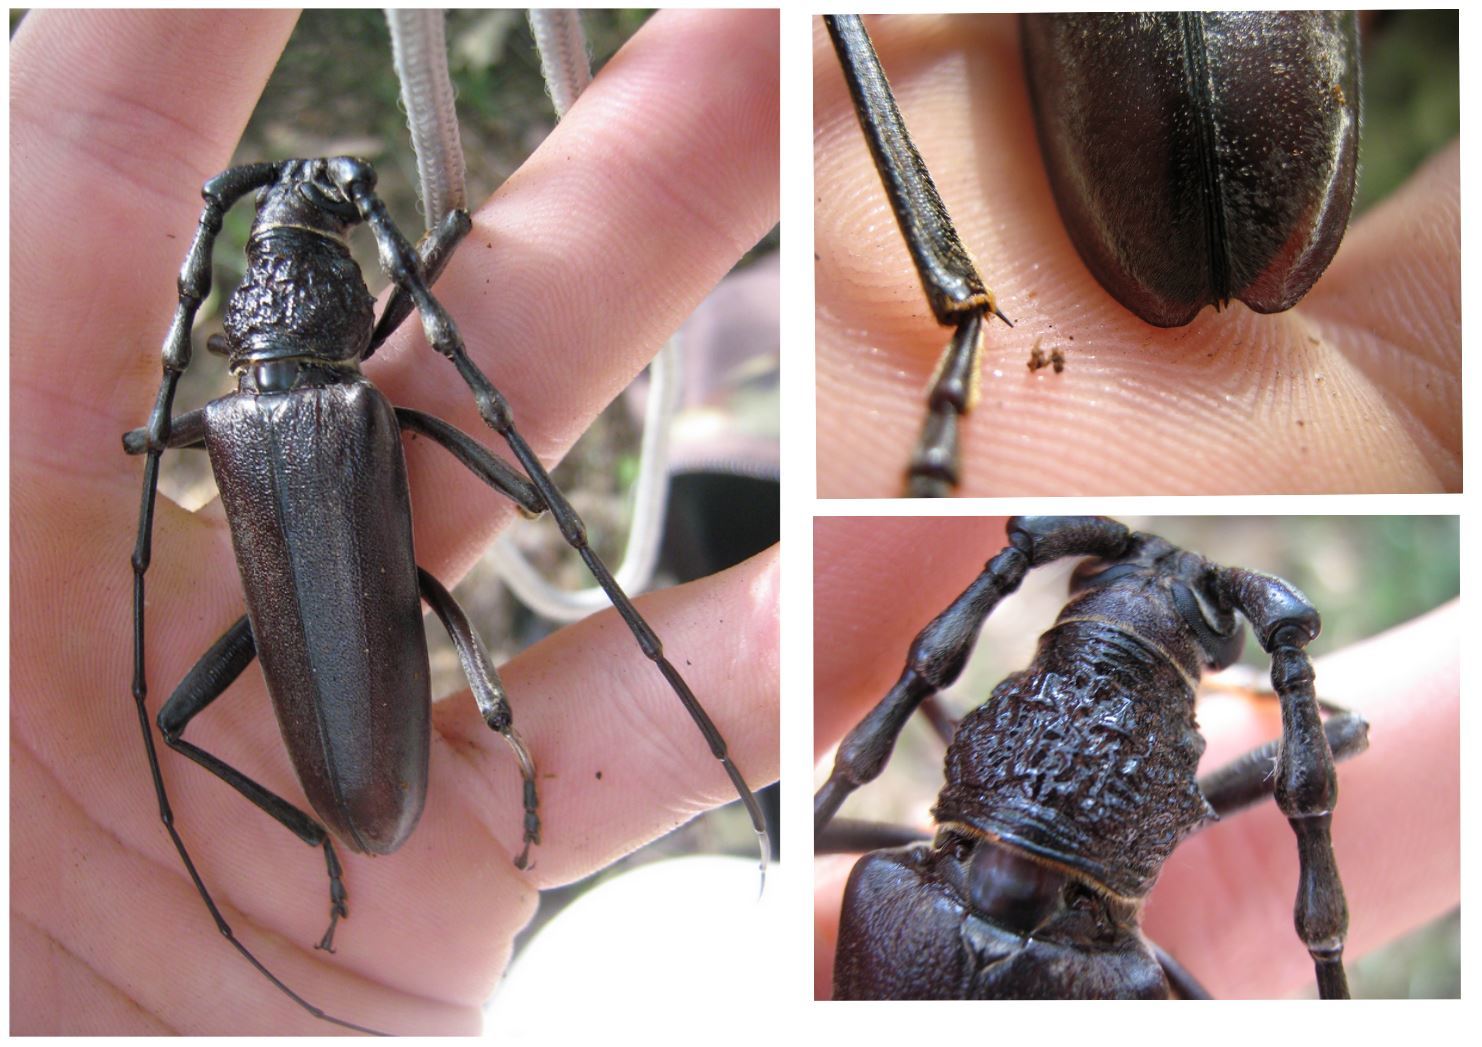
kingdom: Animalia
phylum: Arthropoda
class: Insecta
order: Coleoptera
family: Cerambycidae
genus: Cerambyx
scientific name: Cerambyx welensii
